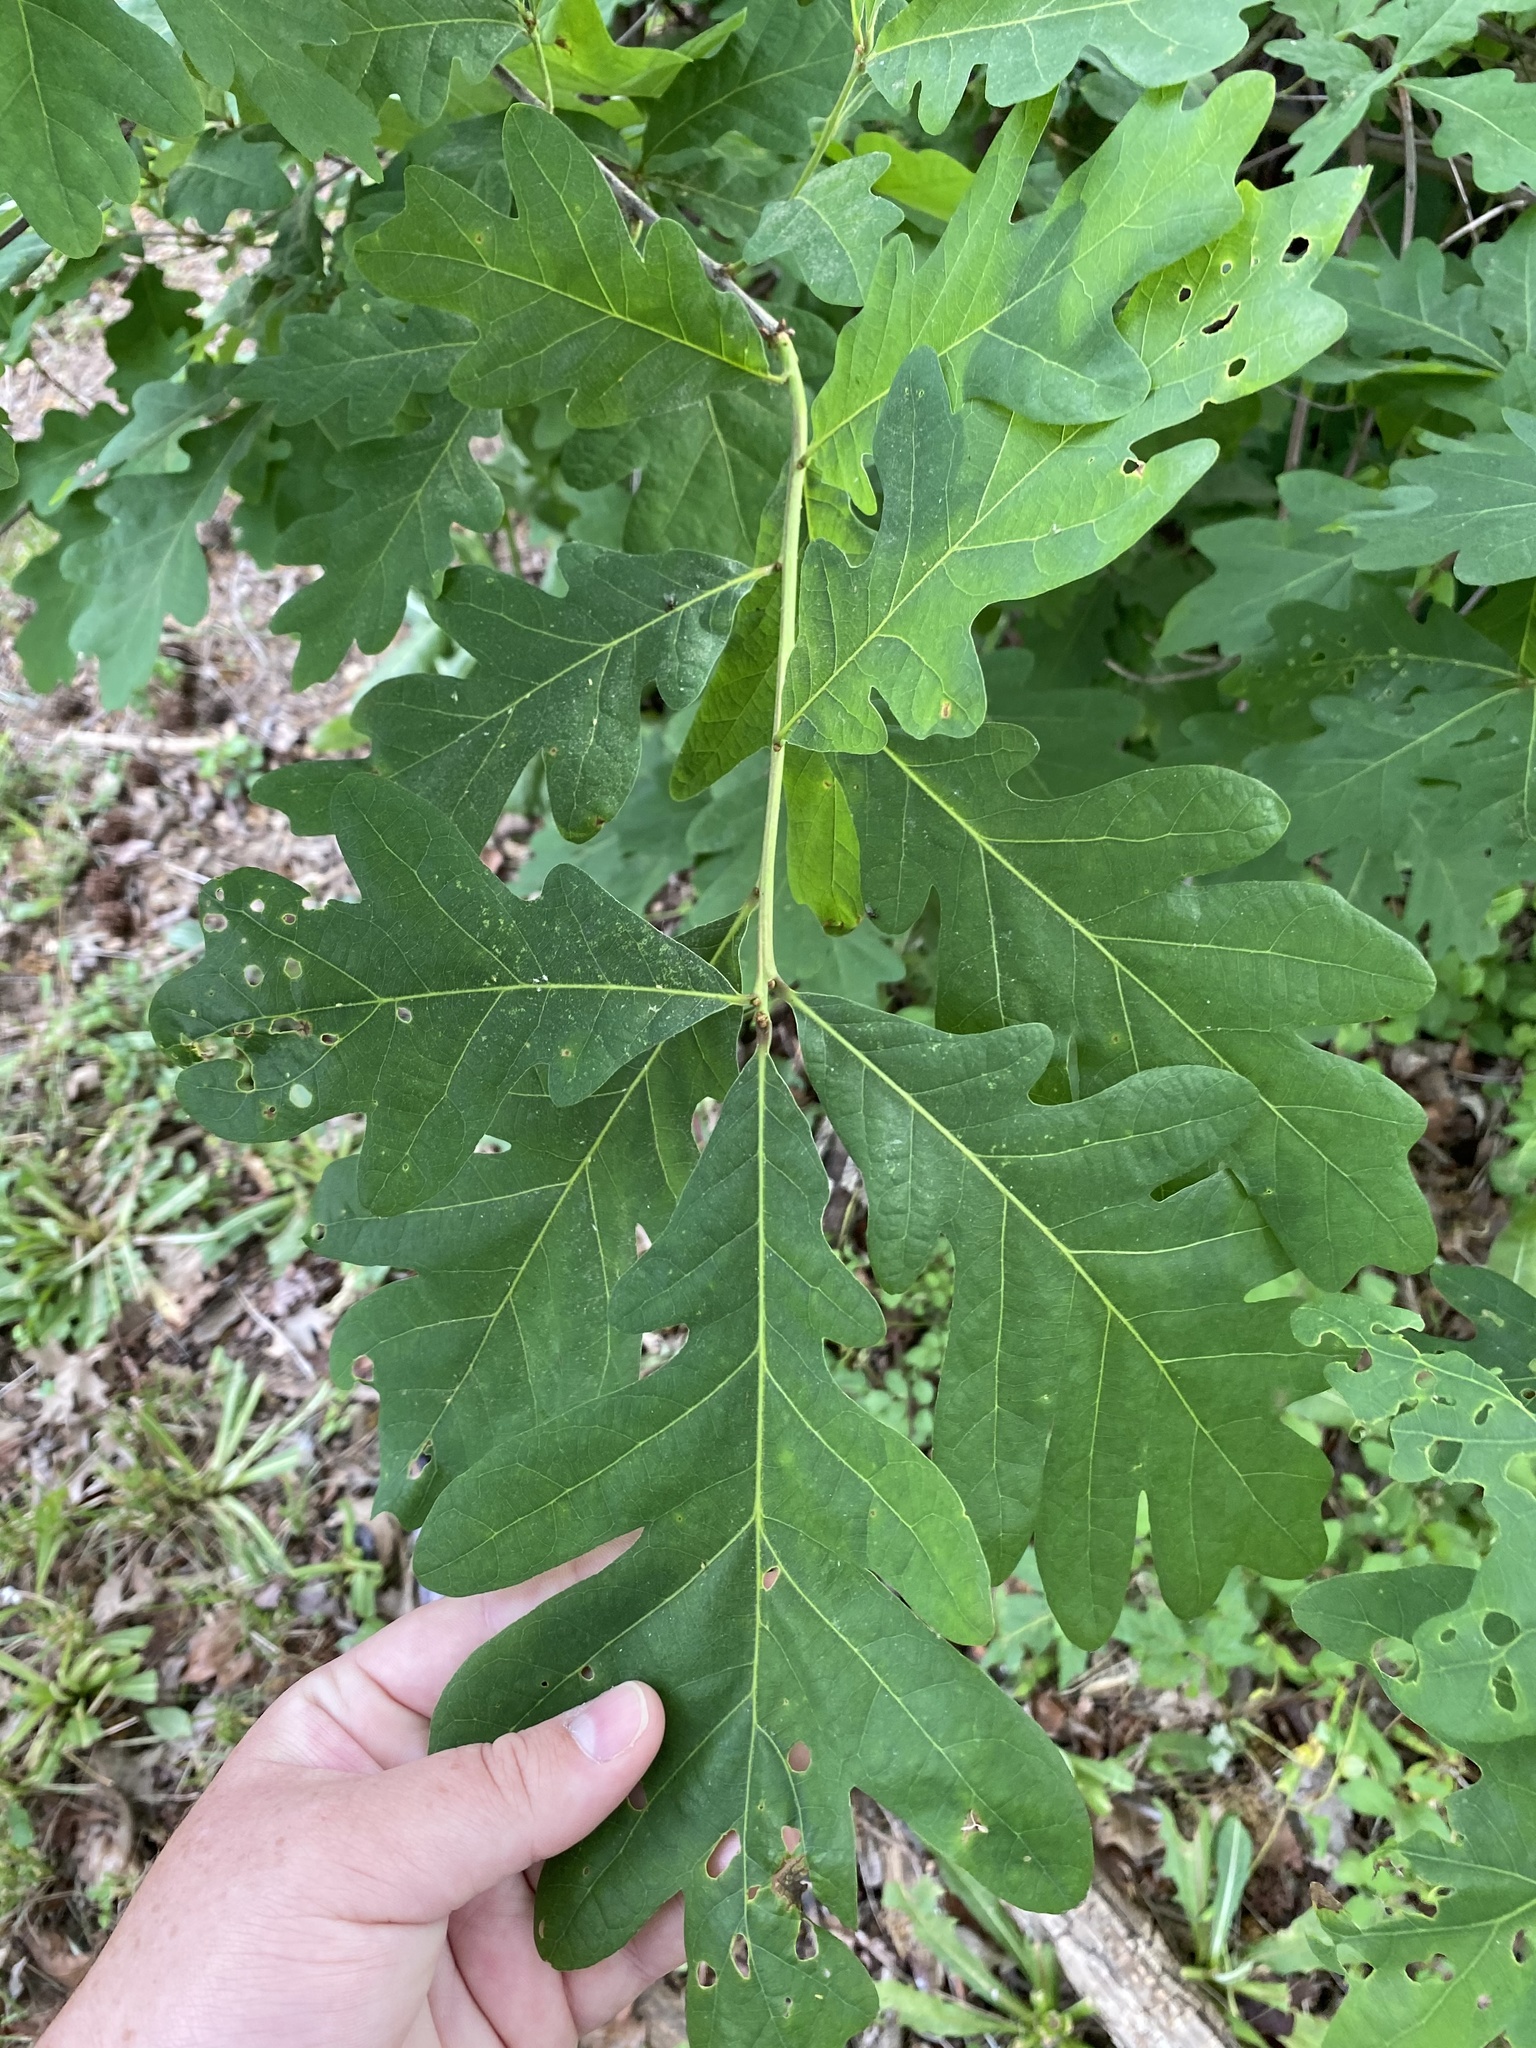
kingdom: Plantae
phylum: Tracheophyta
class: Magnoliopsida
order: Fagales
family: Fagaceae
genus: Quercus
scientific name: Quercus alba
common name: White oak
